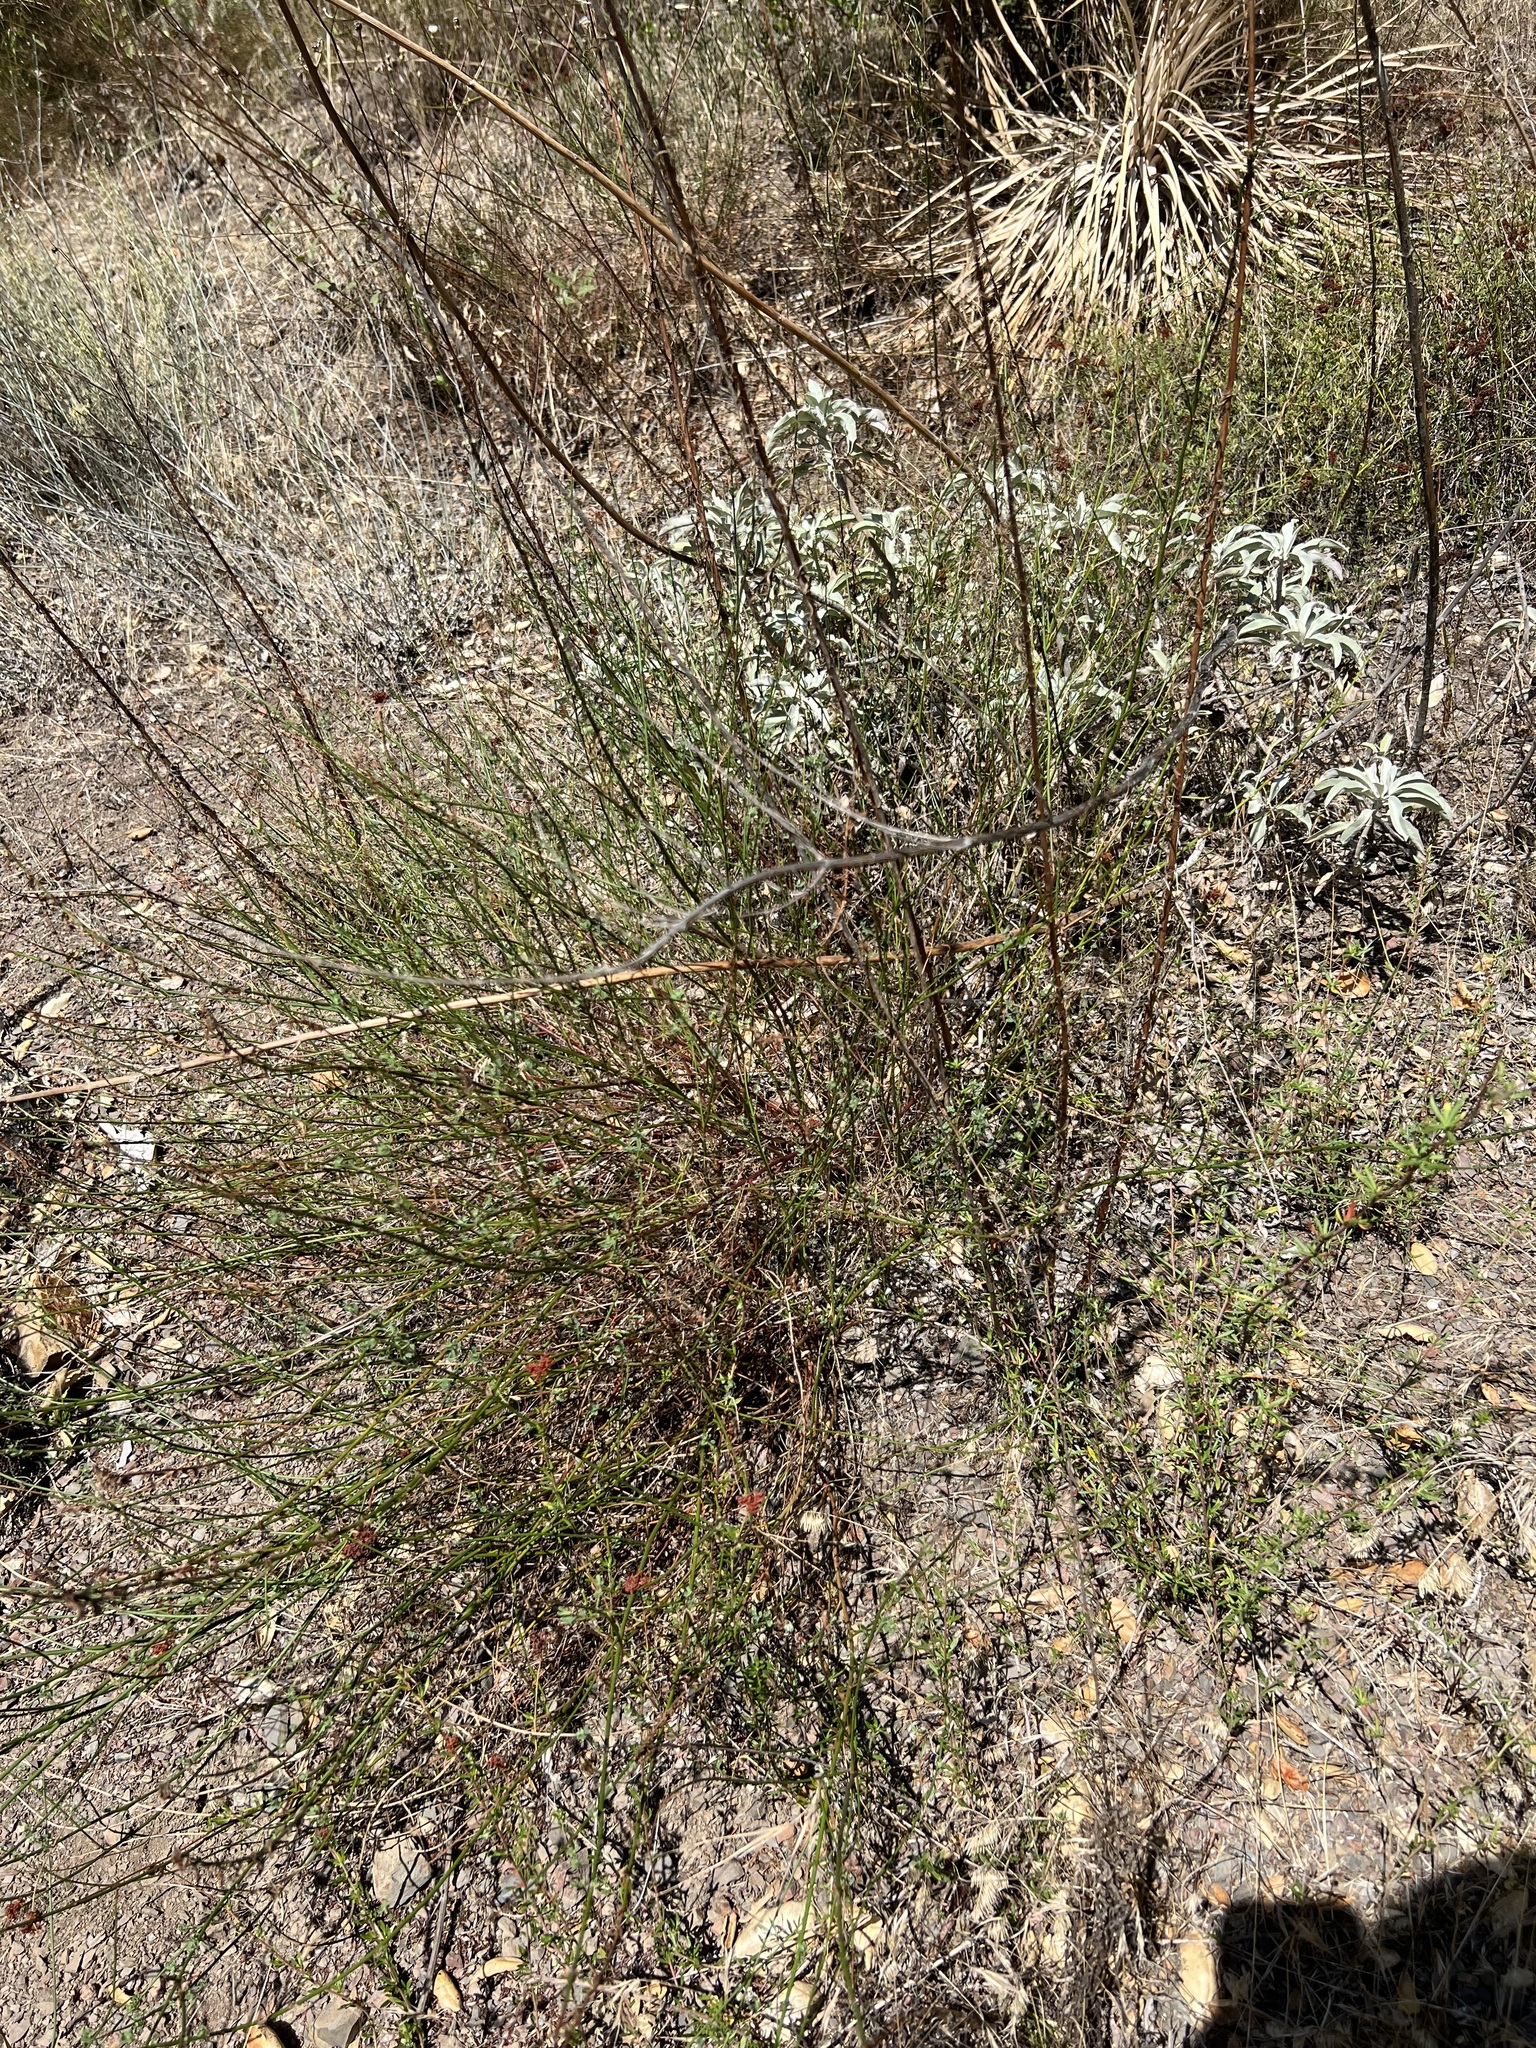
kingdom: Plantae
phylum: Tracheophyta
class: Magnoliopsida
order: Fabales
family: Fabaceae
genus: Acmispon
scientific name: Acmispon glaber
